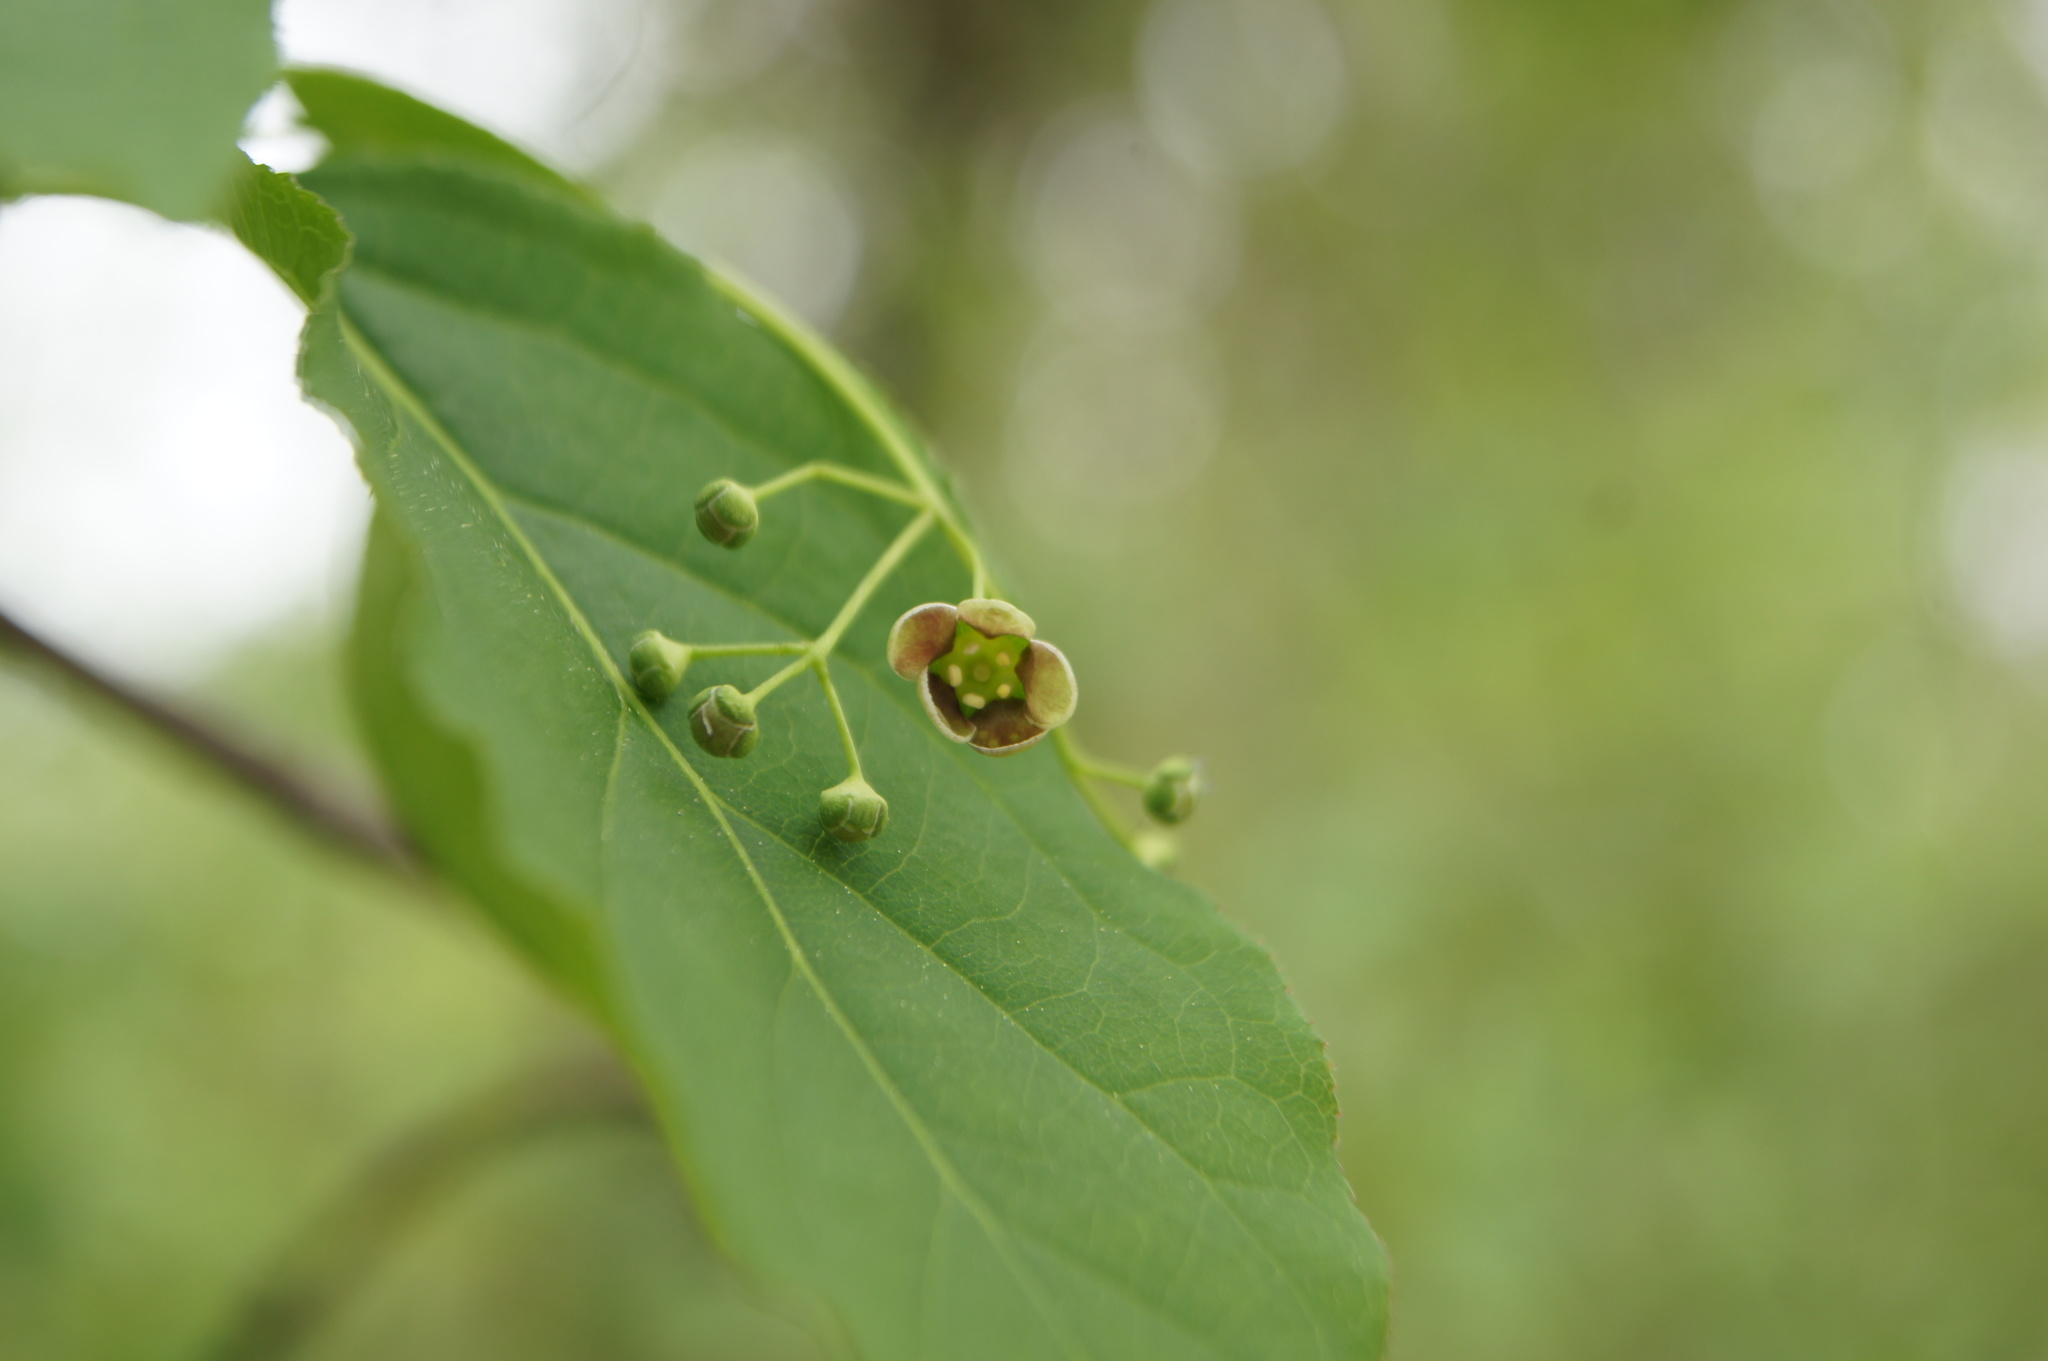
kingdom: Plantae
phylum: Tracheophyta
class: Magnoliopsida
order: Celastrales
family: Celastraceae
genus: Euonymus
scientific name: Euonymus latifolius
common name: Large-leaved spindle
